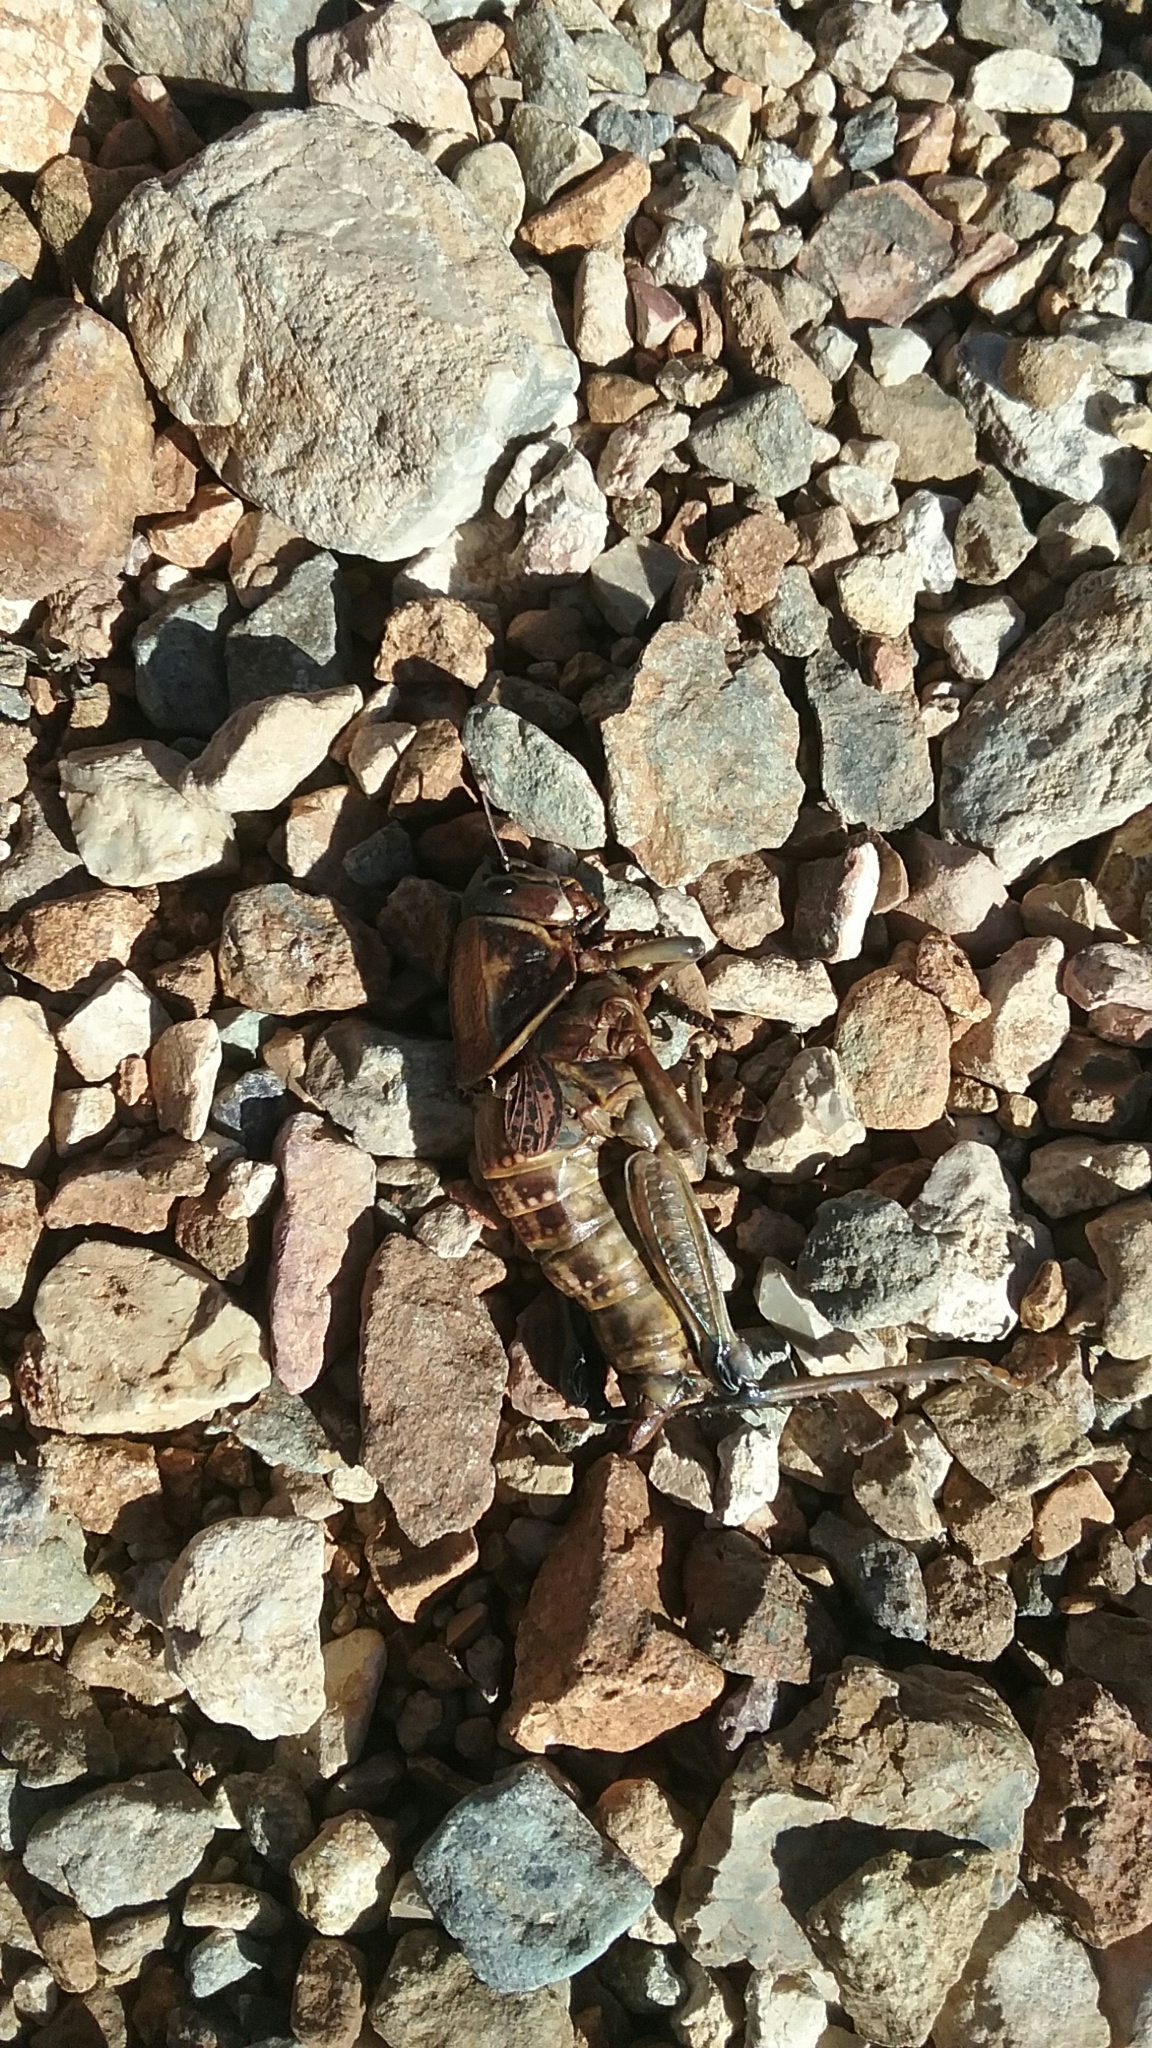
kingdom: Animalia
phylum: Arthropoda
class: Insecta
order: Orthoptera
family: Romaleidae
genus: Brachystola
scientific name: Brachystola magna
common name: Plains lubber grasshopper
